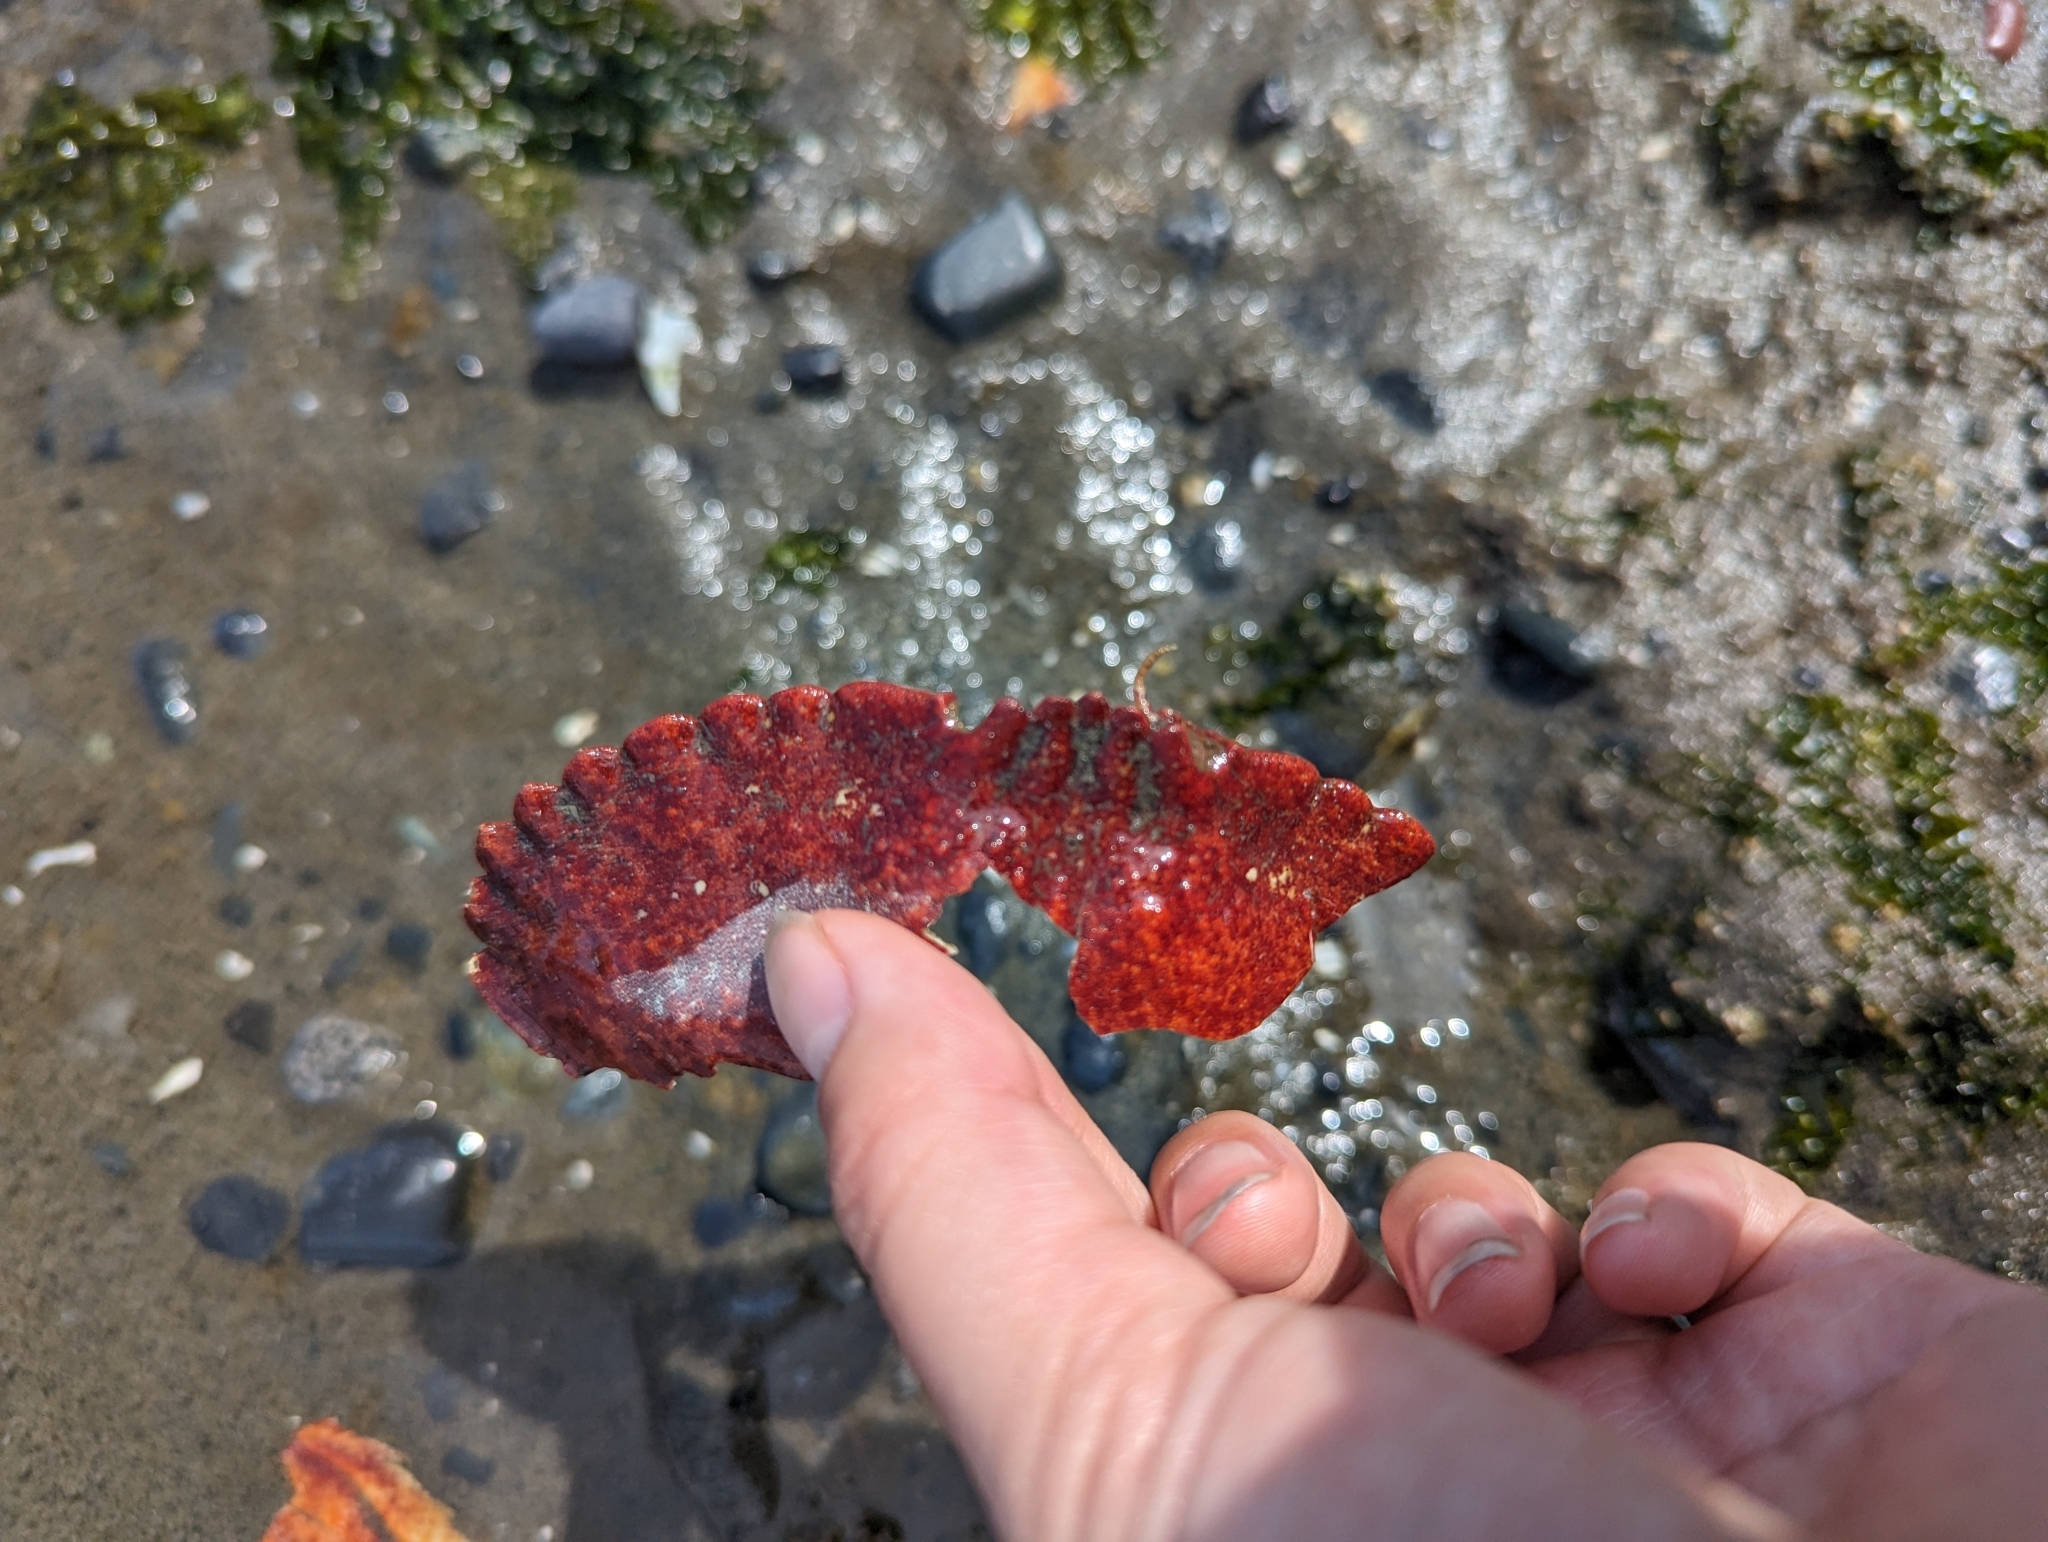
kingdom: Animalia
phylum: Arthropoda
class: Malacostraca
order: Decapoda
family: Cancridae
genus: Cancer
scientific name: Cancer productus
